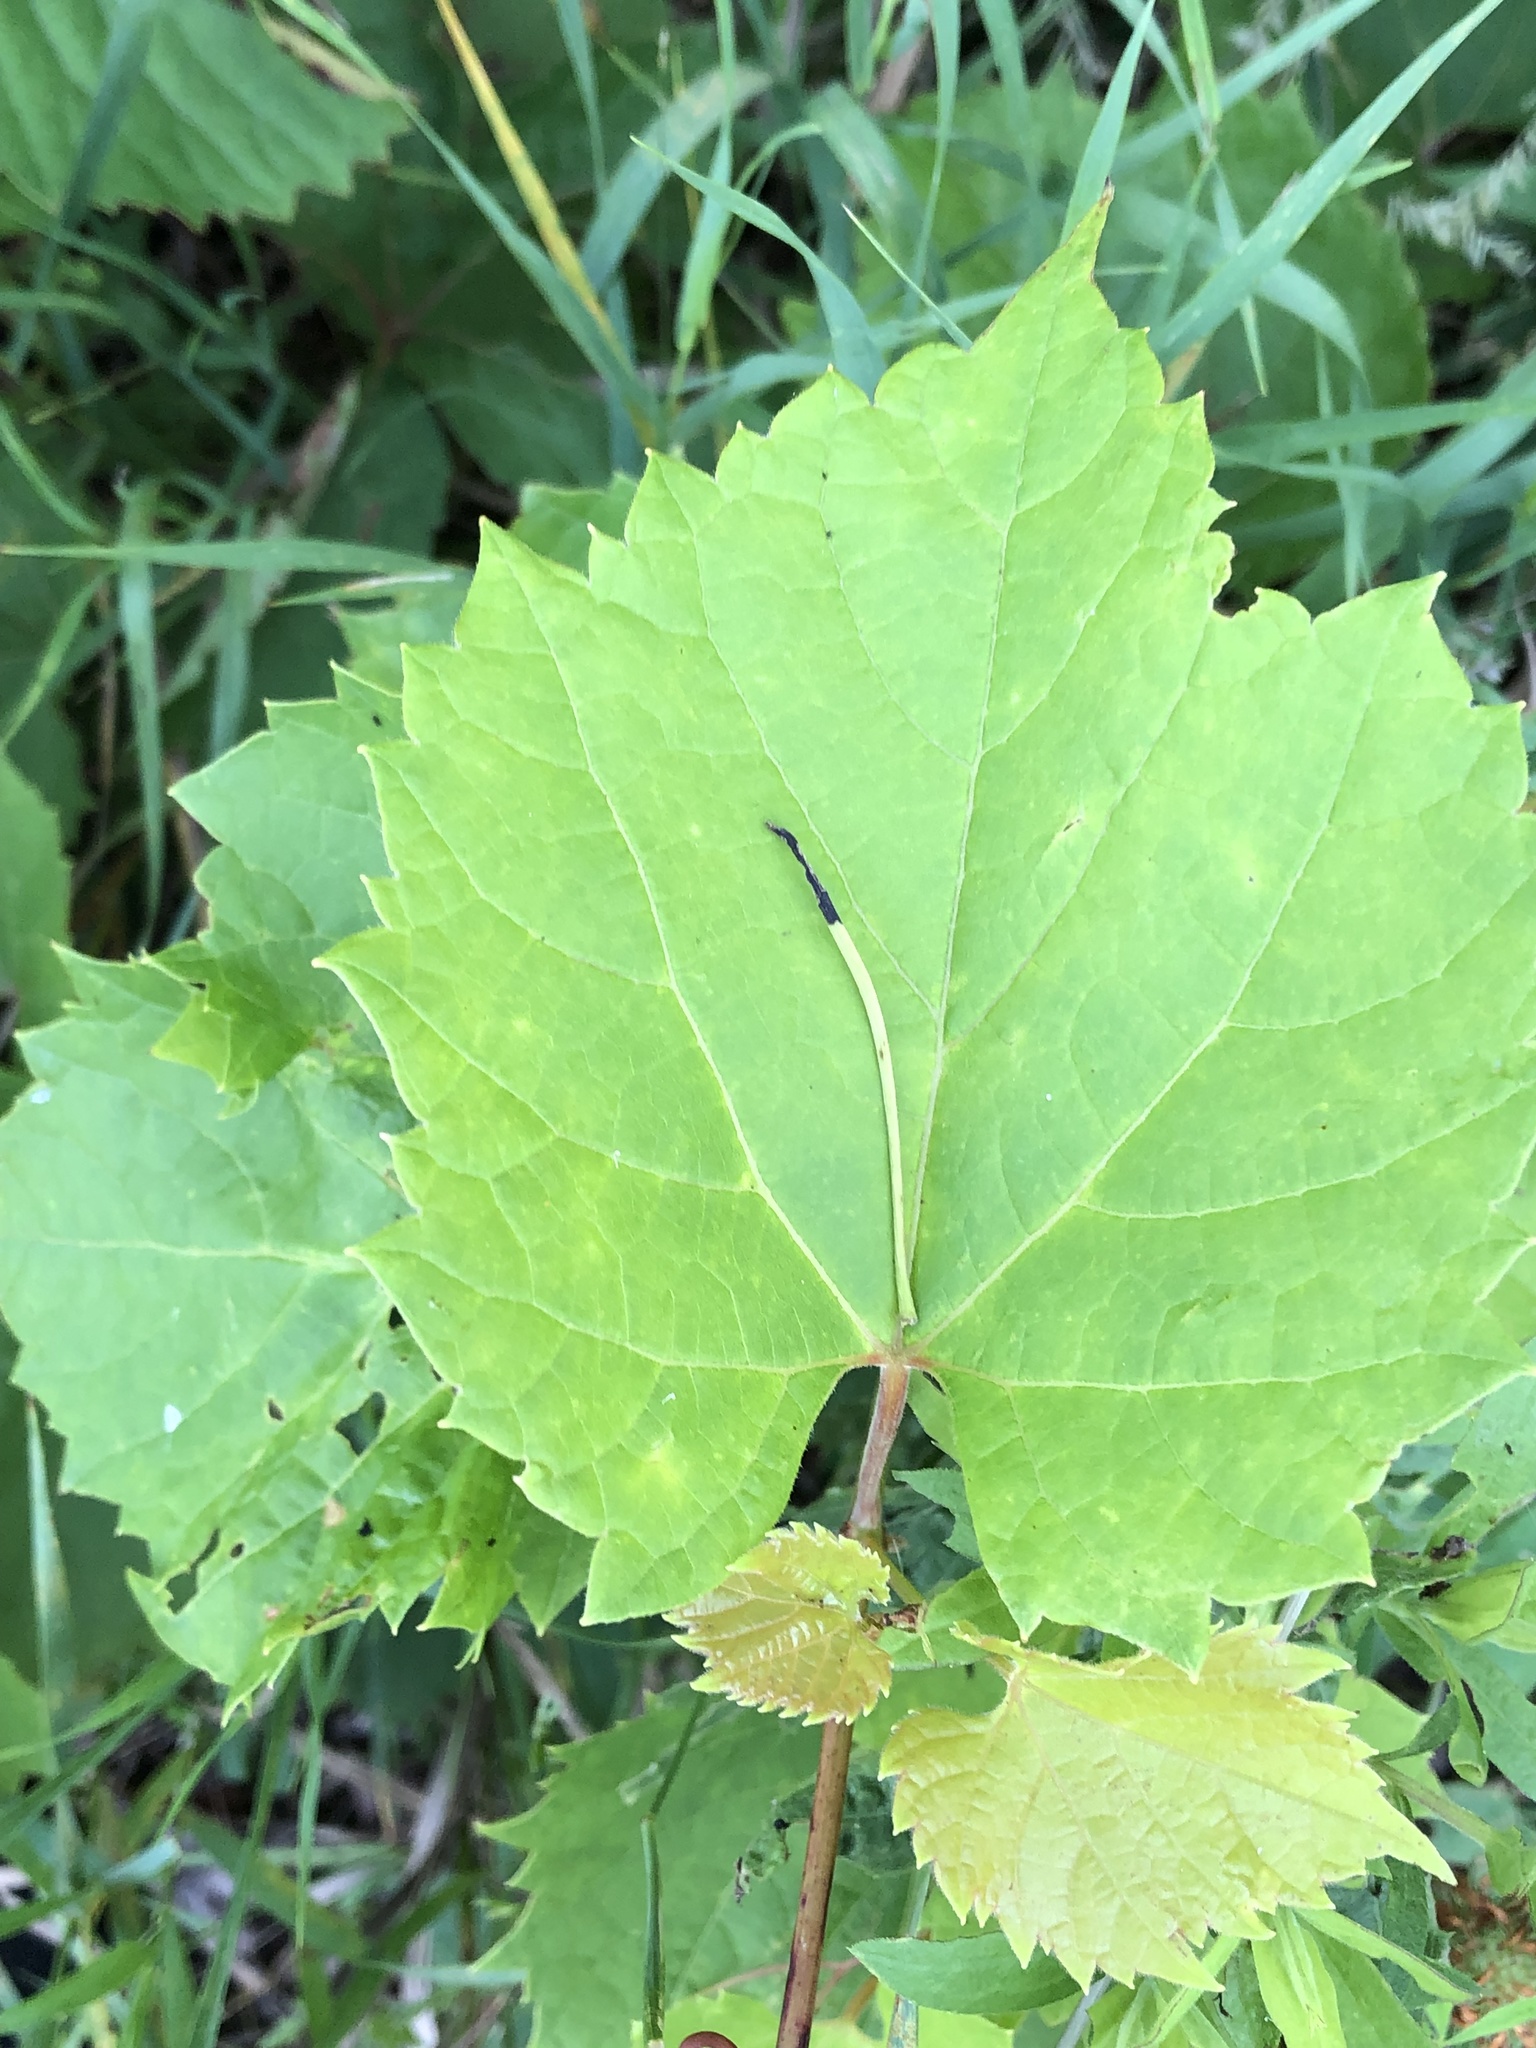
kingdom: Plantae
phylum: Tracheophyta
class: Magnoliopsida
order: Vitales
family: Vitaceae
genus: Vitis
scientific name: Vitis riparia
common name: Frost grape
